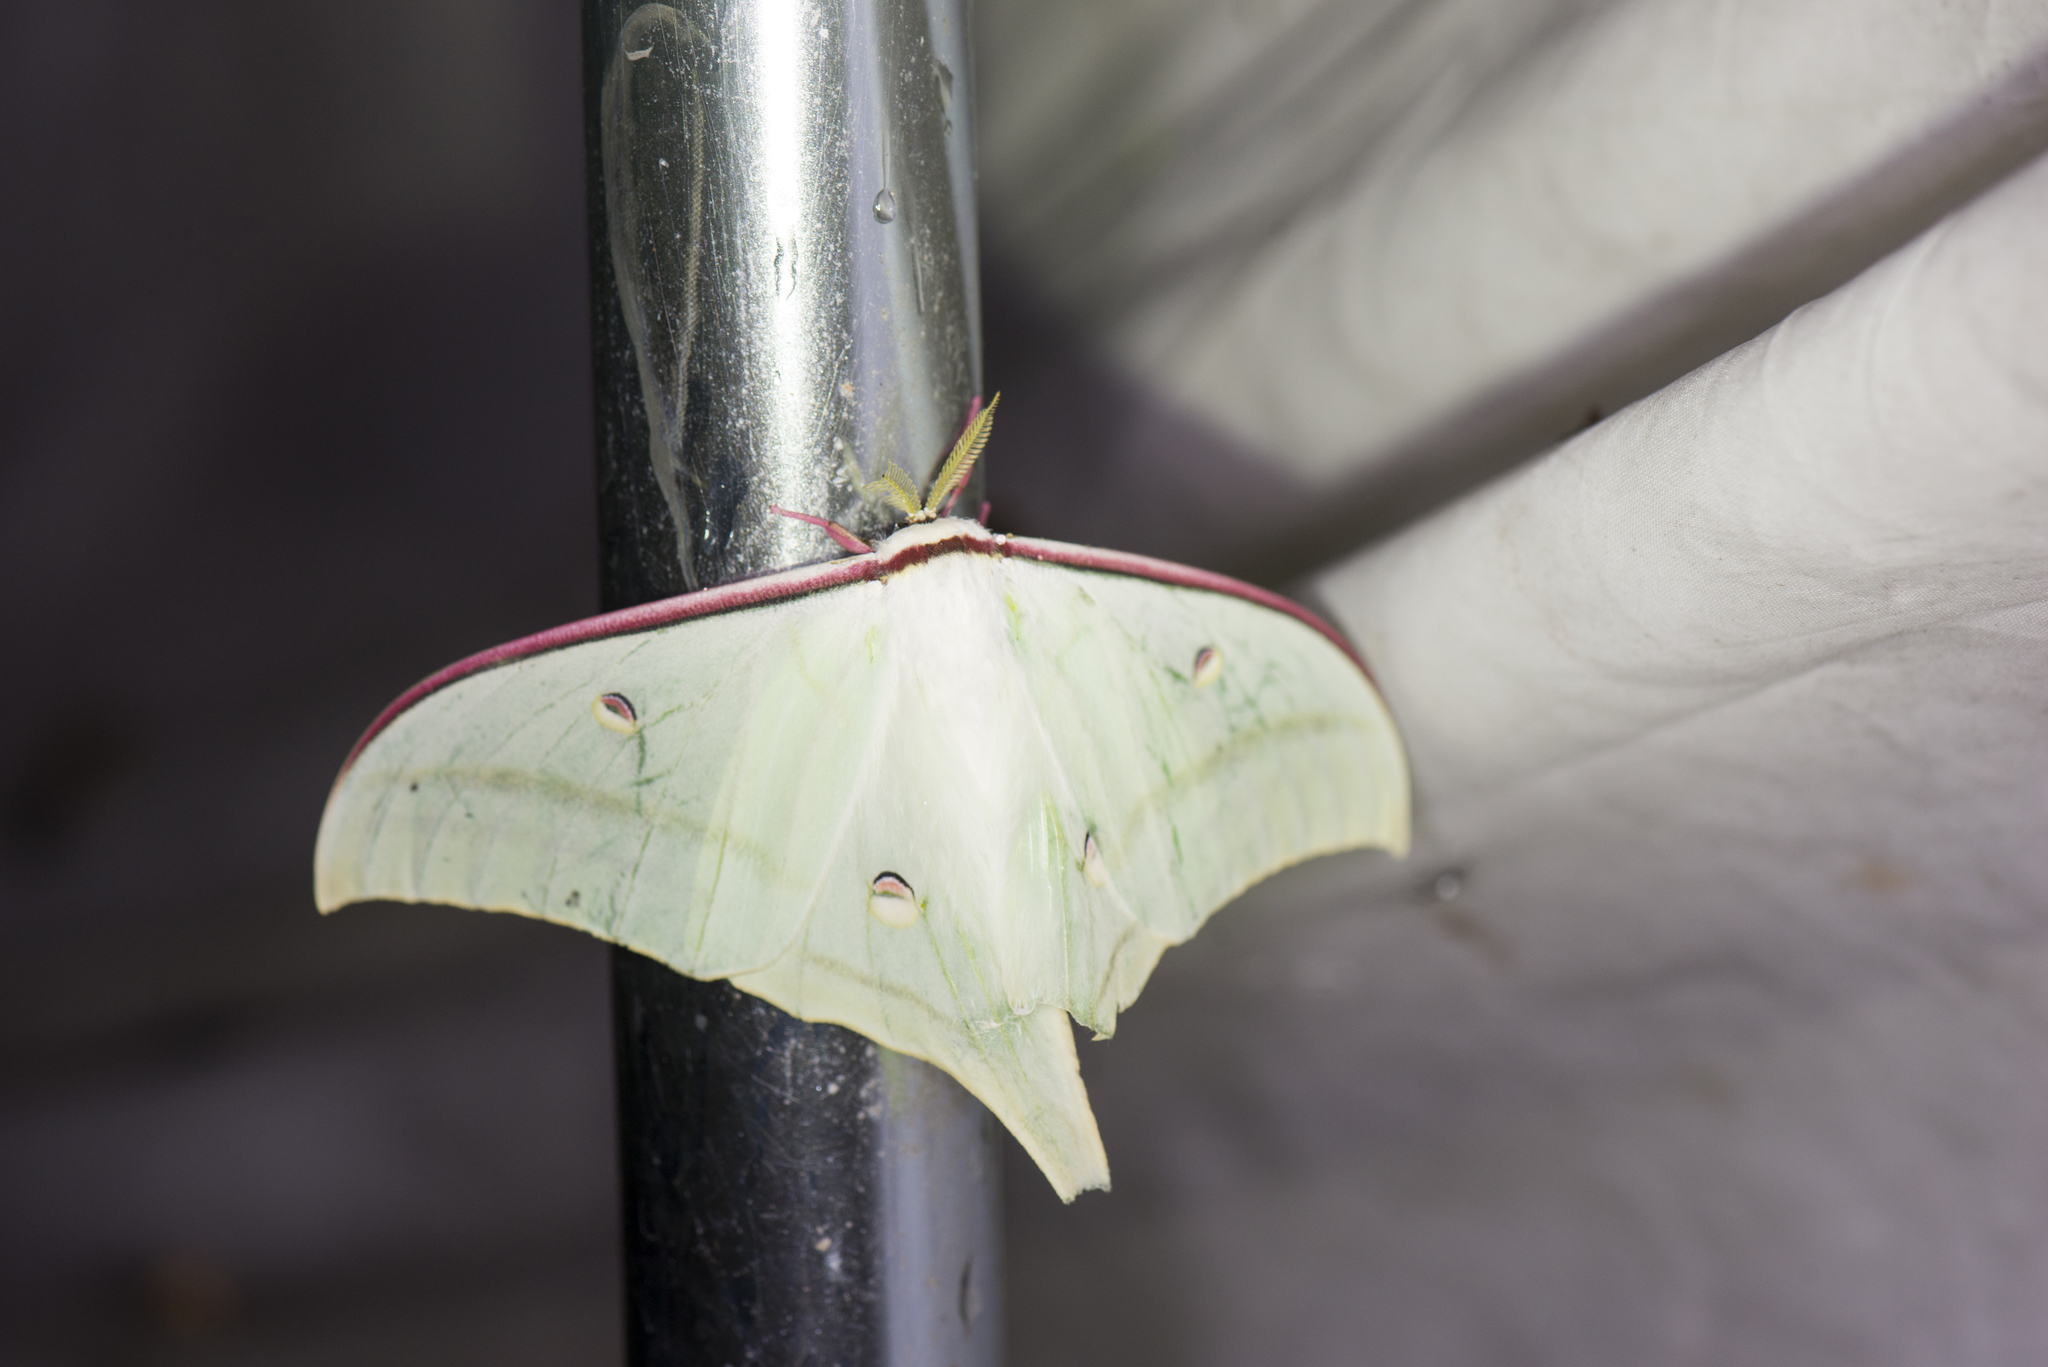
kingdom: Animalia
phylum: Arthropoda
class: Insecta
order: Lepidoptera
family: Saturniidae
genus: Actias
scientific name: Actias ningpoana
